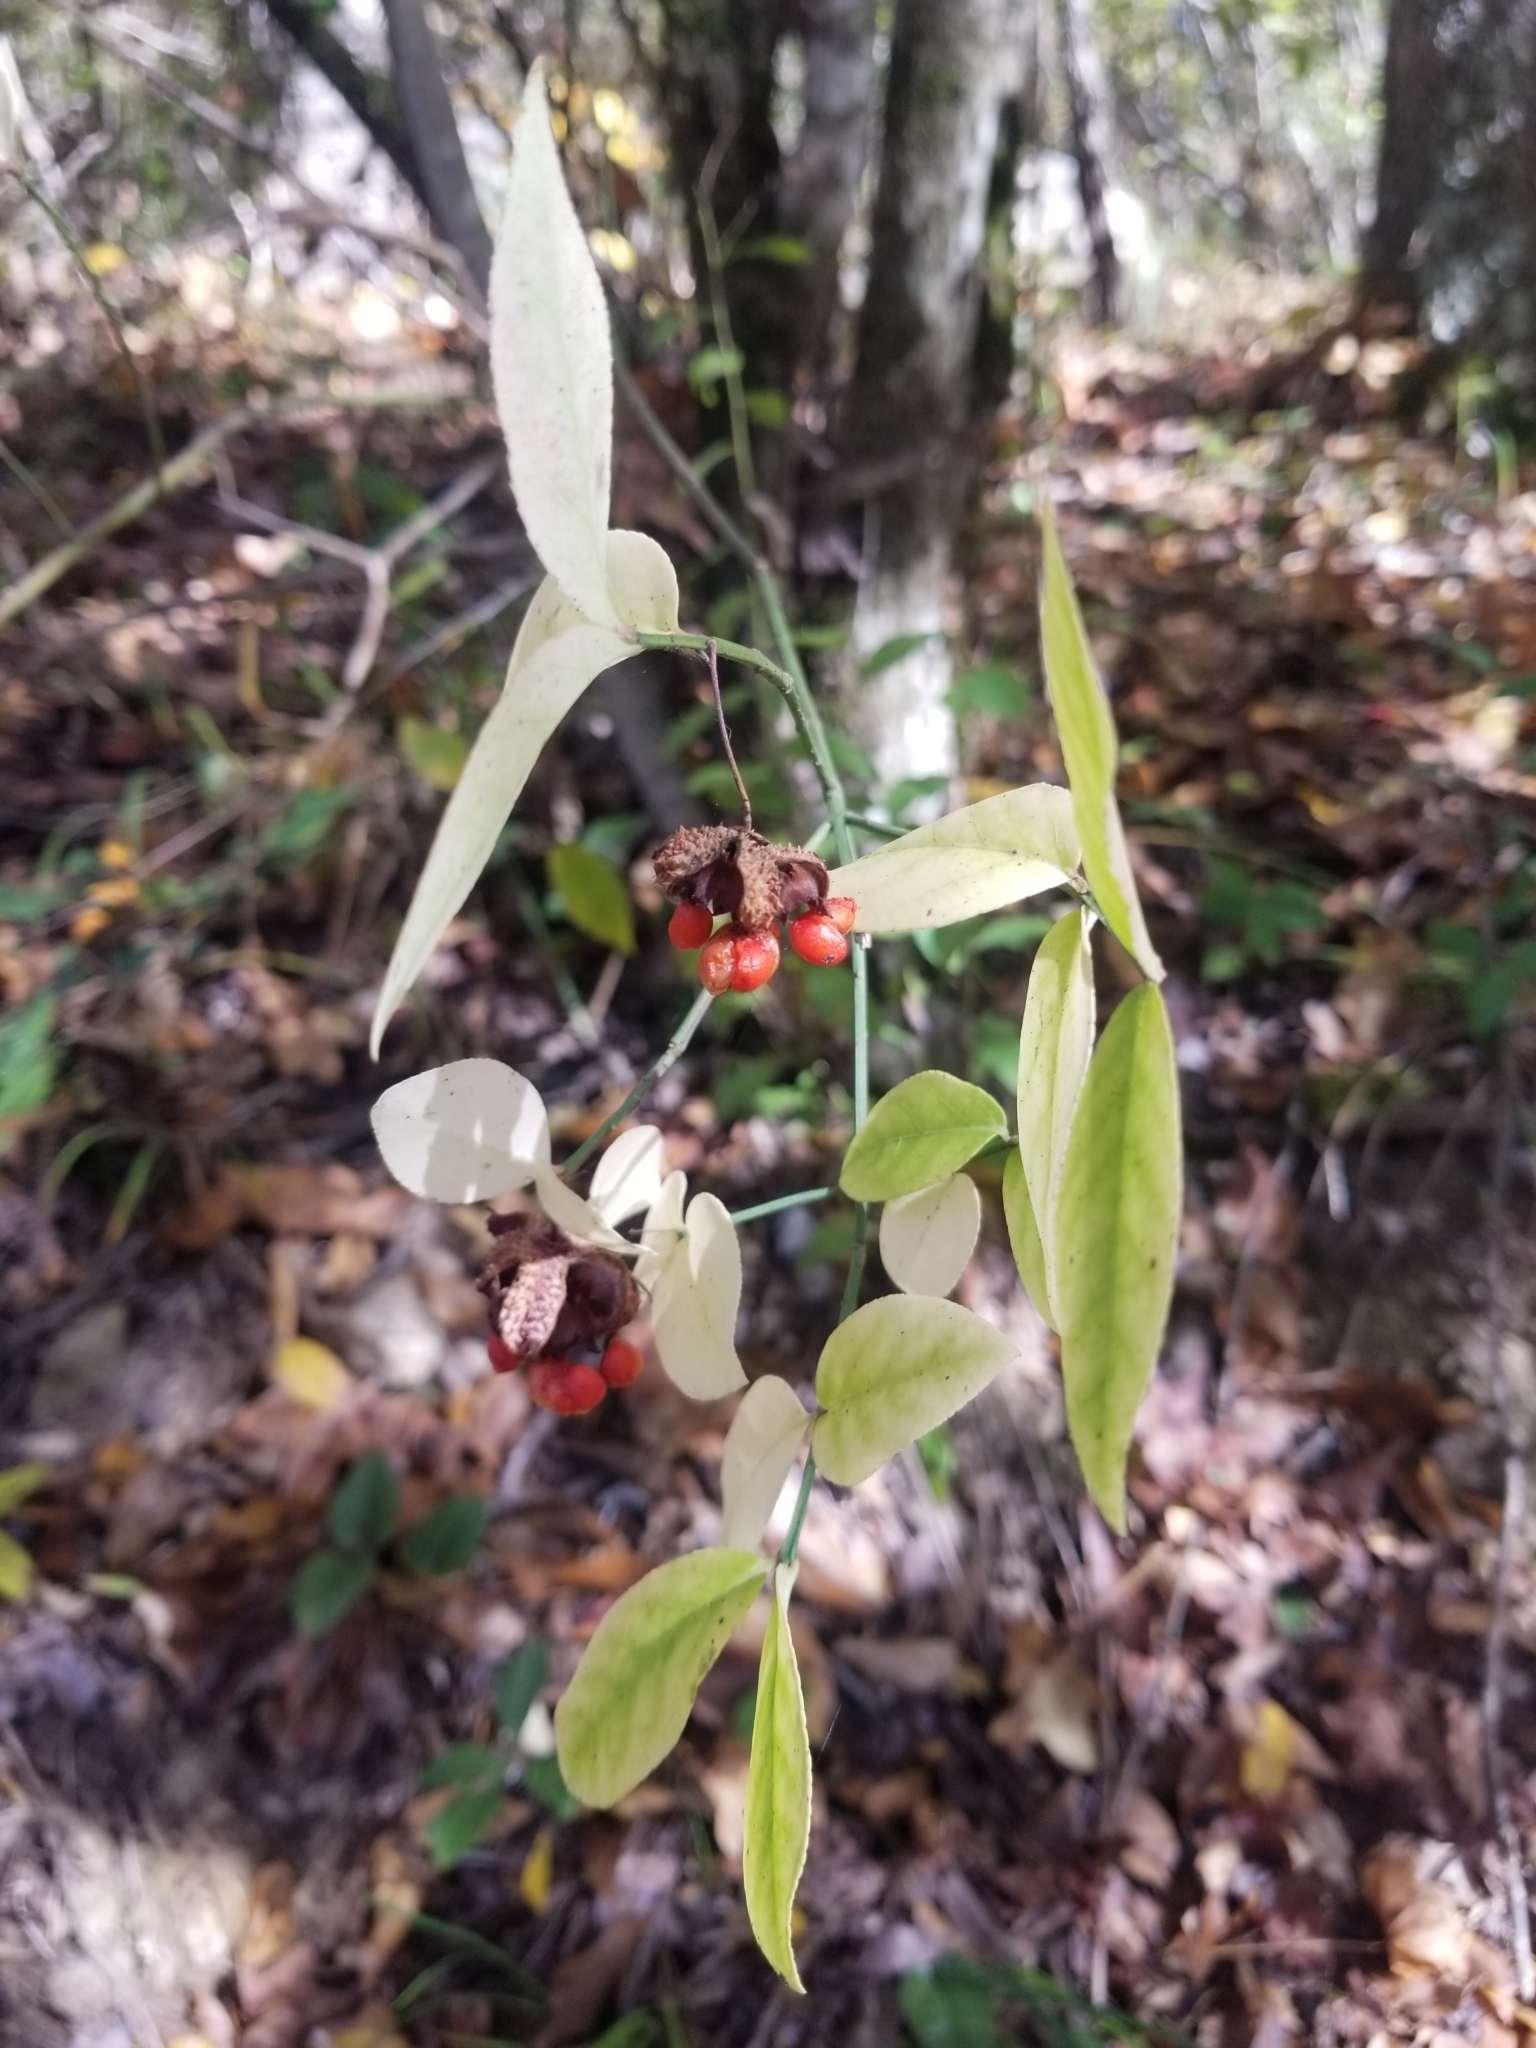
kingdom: Plantae
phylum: Tracheophyta
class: Magnoliopsida
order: Celastrales
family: Celastraceae
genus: Euonymus
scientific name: Euonymus americanus
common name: Bursting-heart
